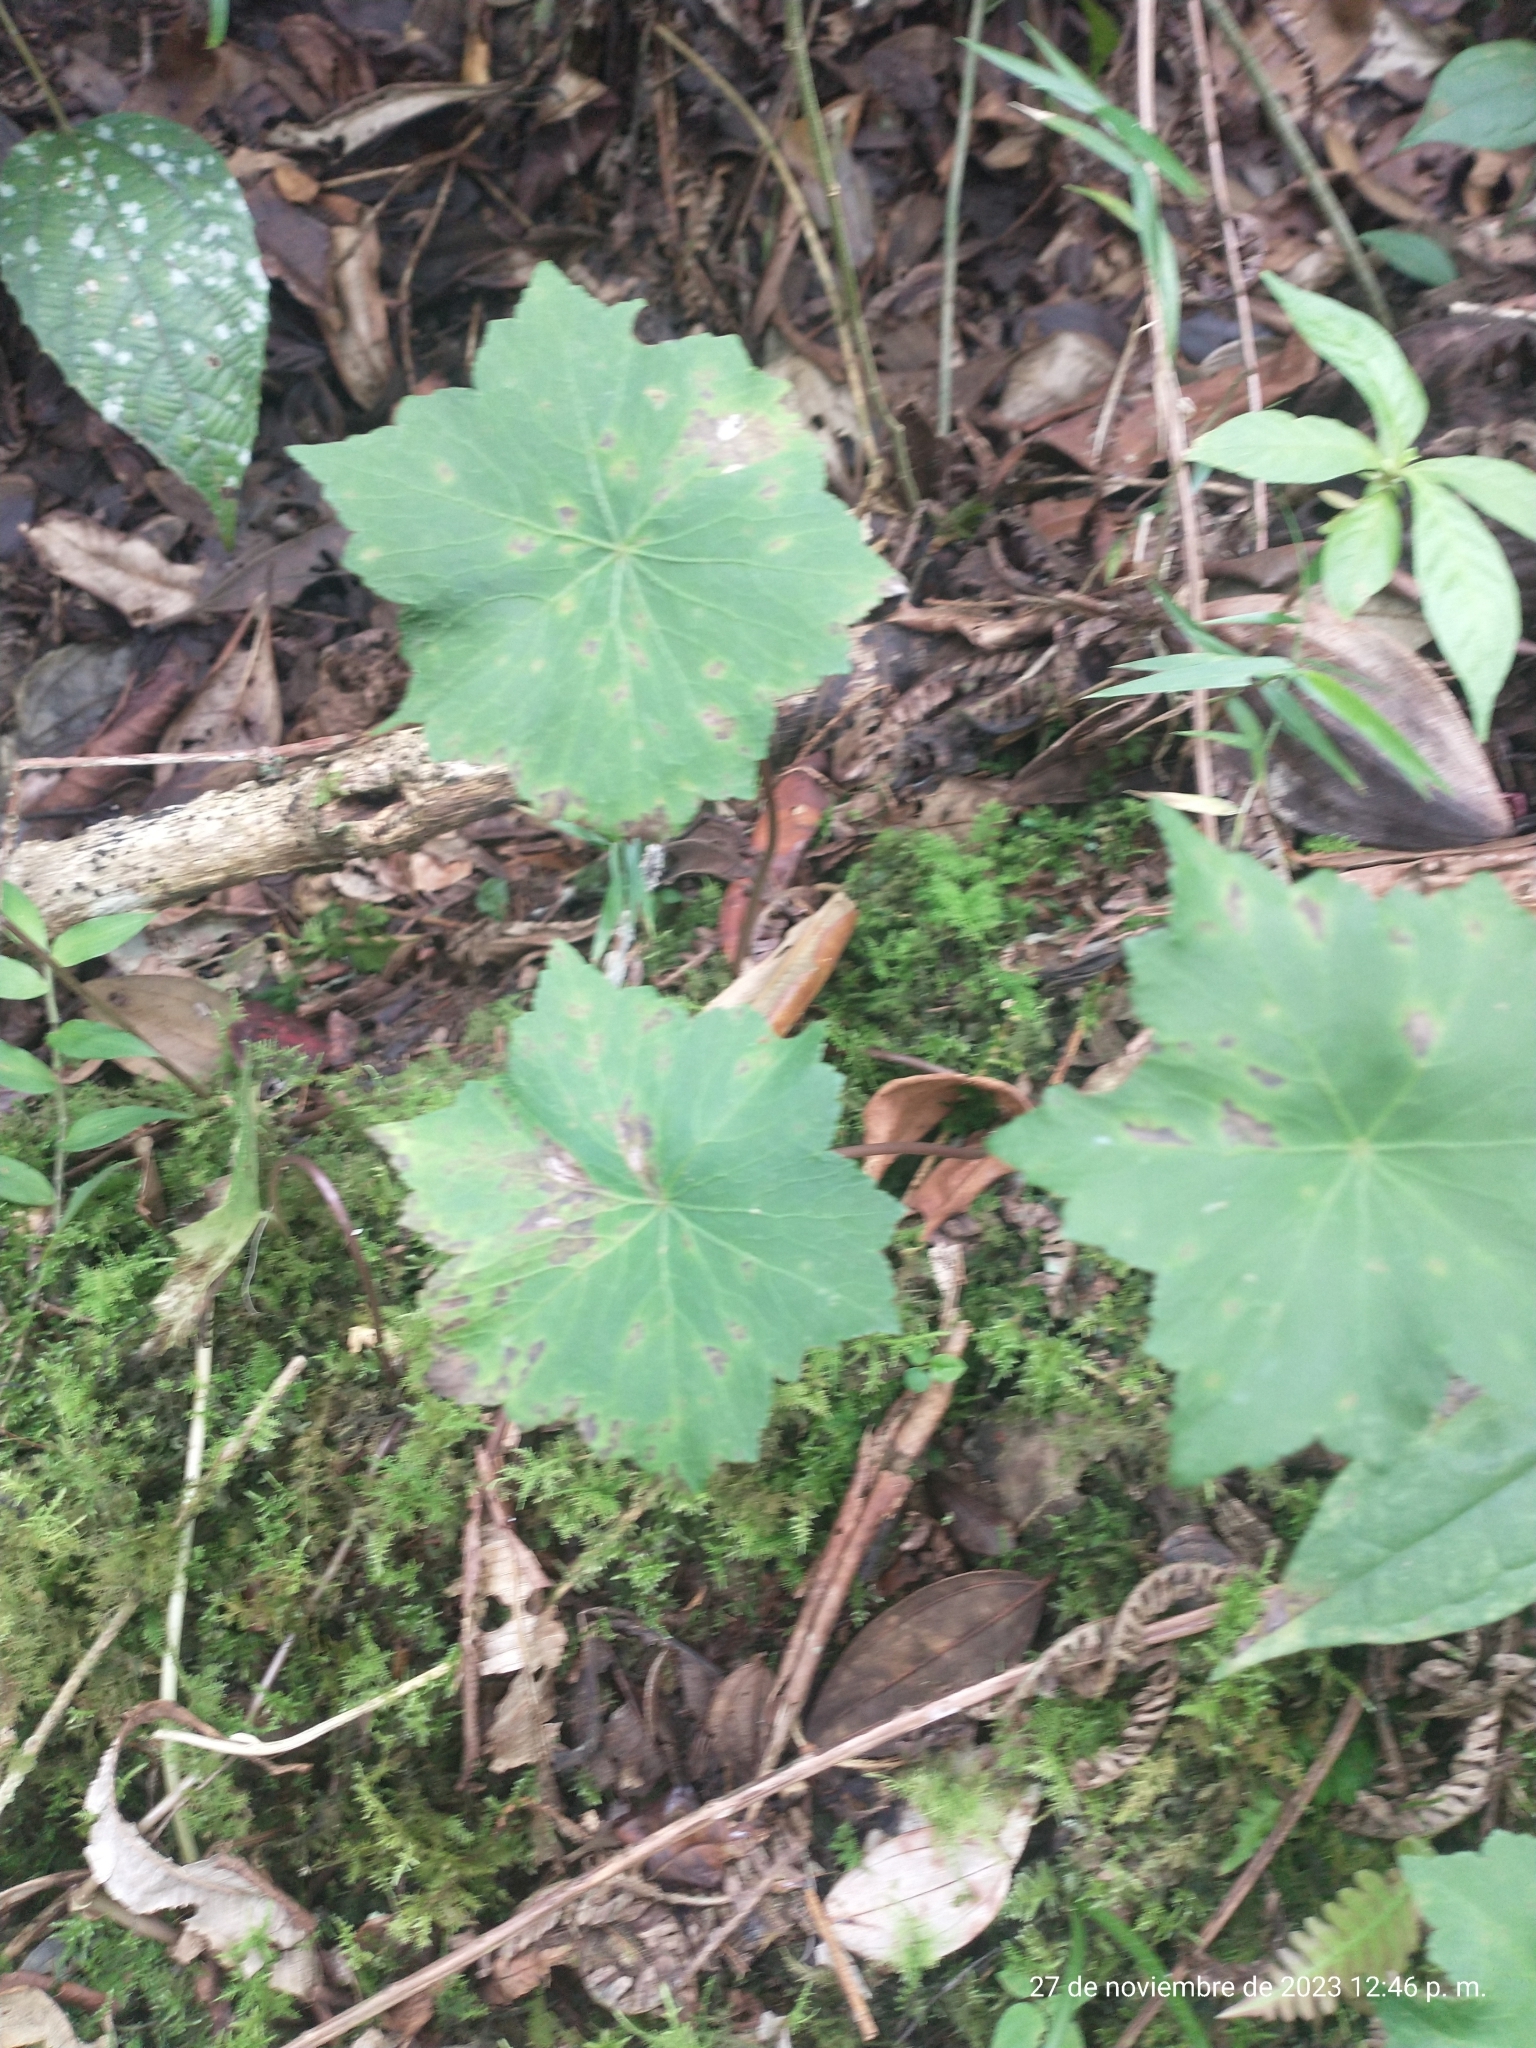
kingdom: Plantae
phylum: Tracheophyta
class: Magnoliopsida
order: Apiales
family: Araliaceae
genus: Hydrocotyle
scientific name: Hydrocotyle aconitifolia
